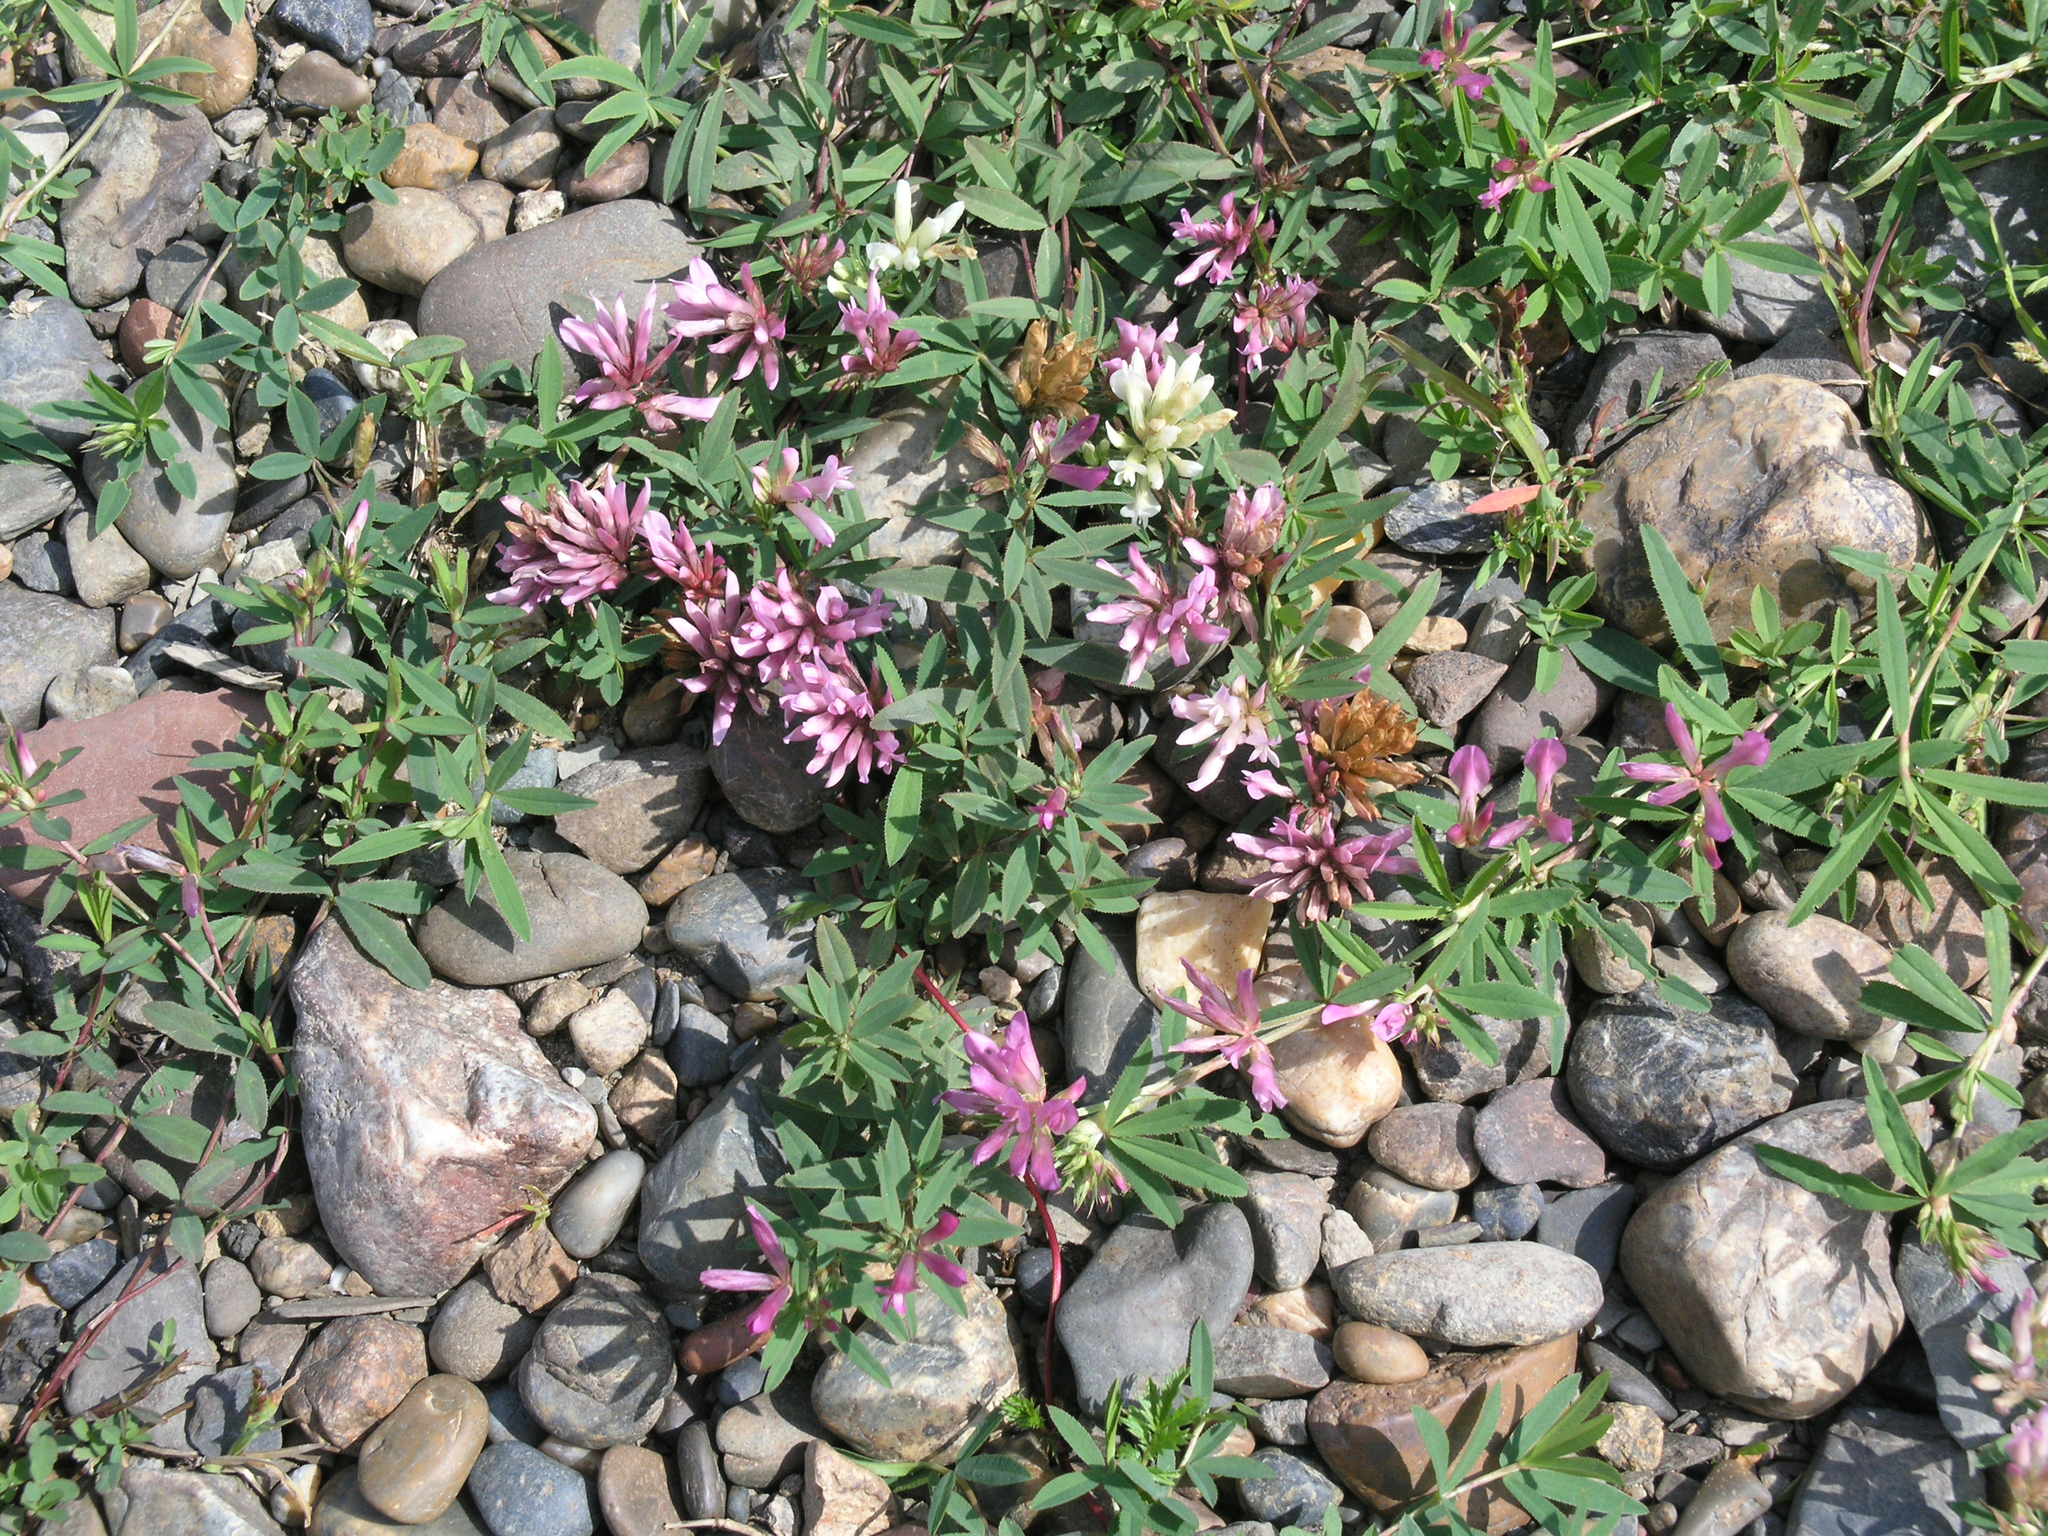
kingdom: Plantae
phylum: Tracheophyta
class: Magnoliopsida
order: Fabales
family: Fabaceae
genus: Trifolium
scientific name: Trifolium lupinaster
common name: Lupine clover
